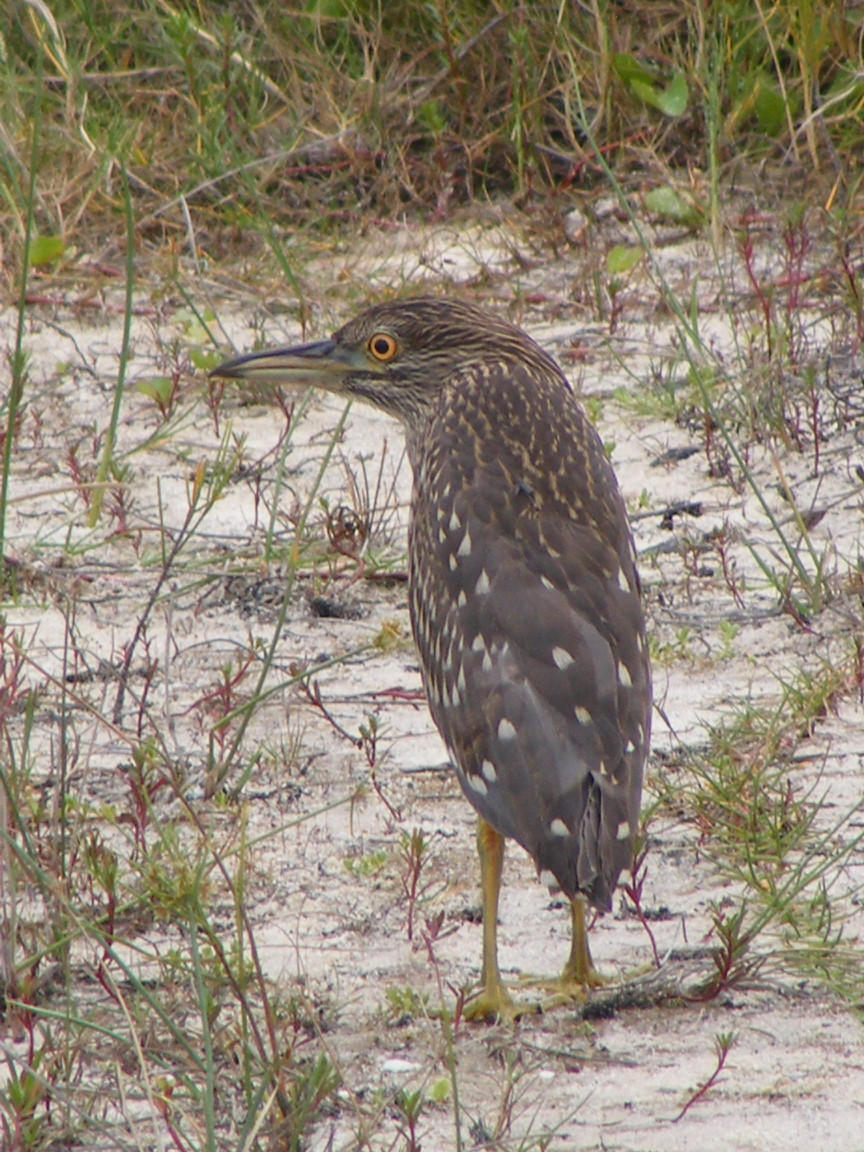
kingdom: Animalia
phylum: Chordata
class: Aves
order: Pelecaniformes
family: Ardeidae
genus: Nycticorax
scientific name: Nycticorax nycticorax
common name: Black-crowned night heron
